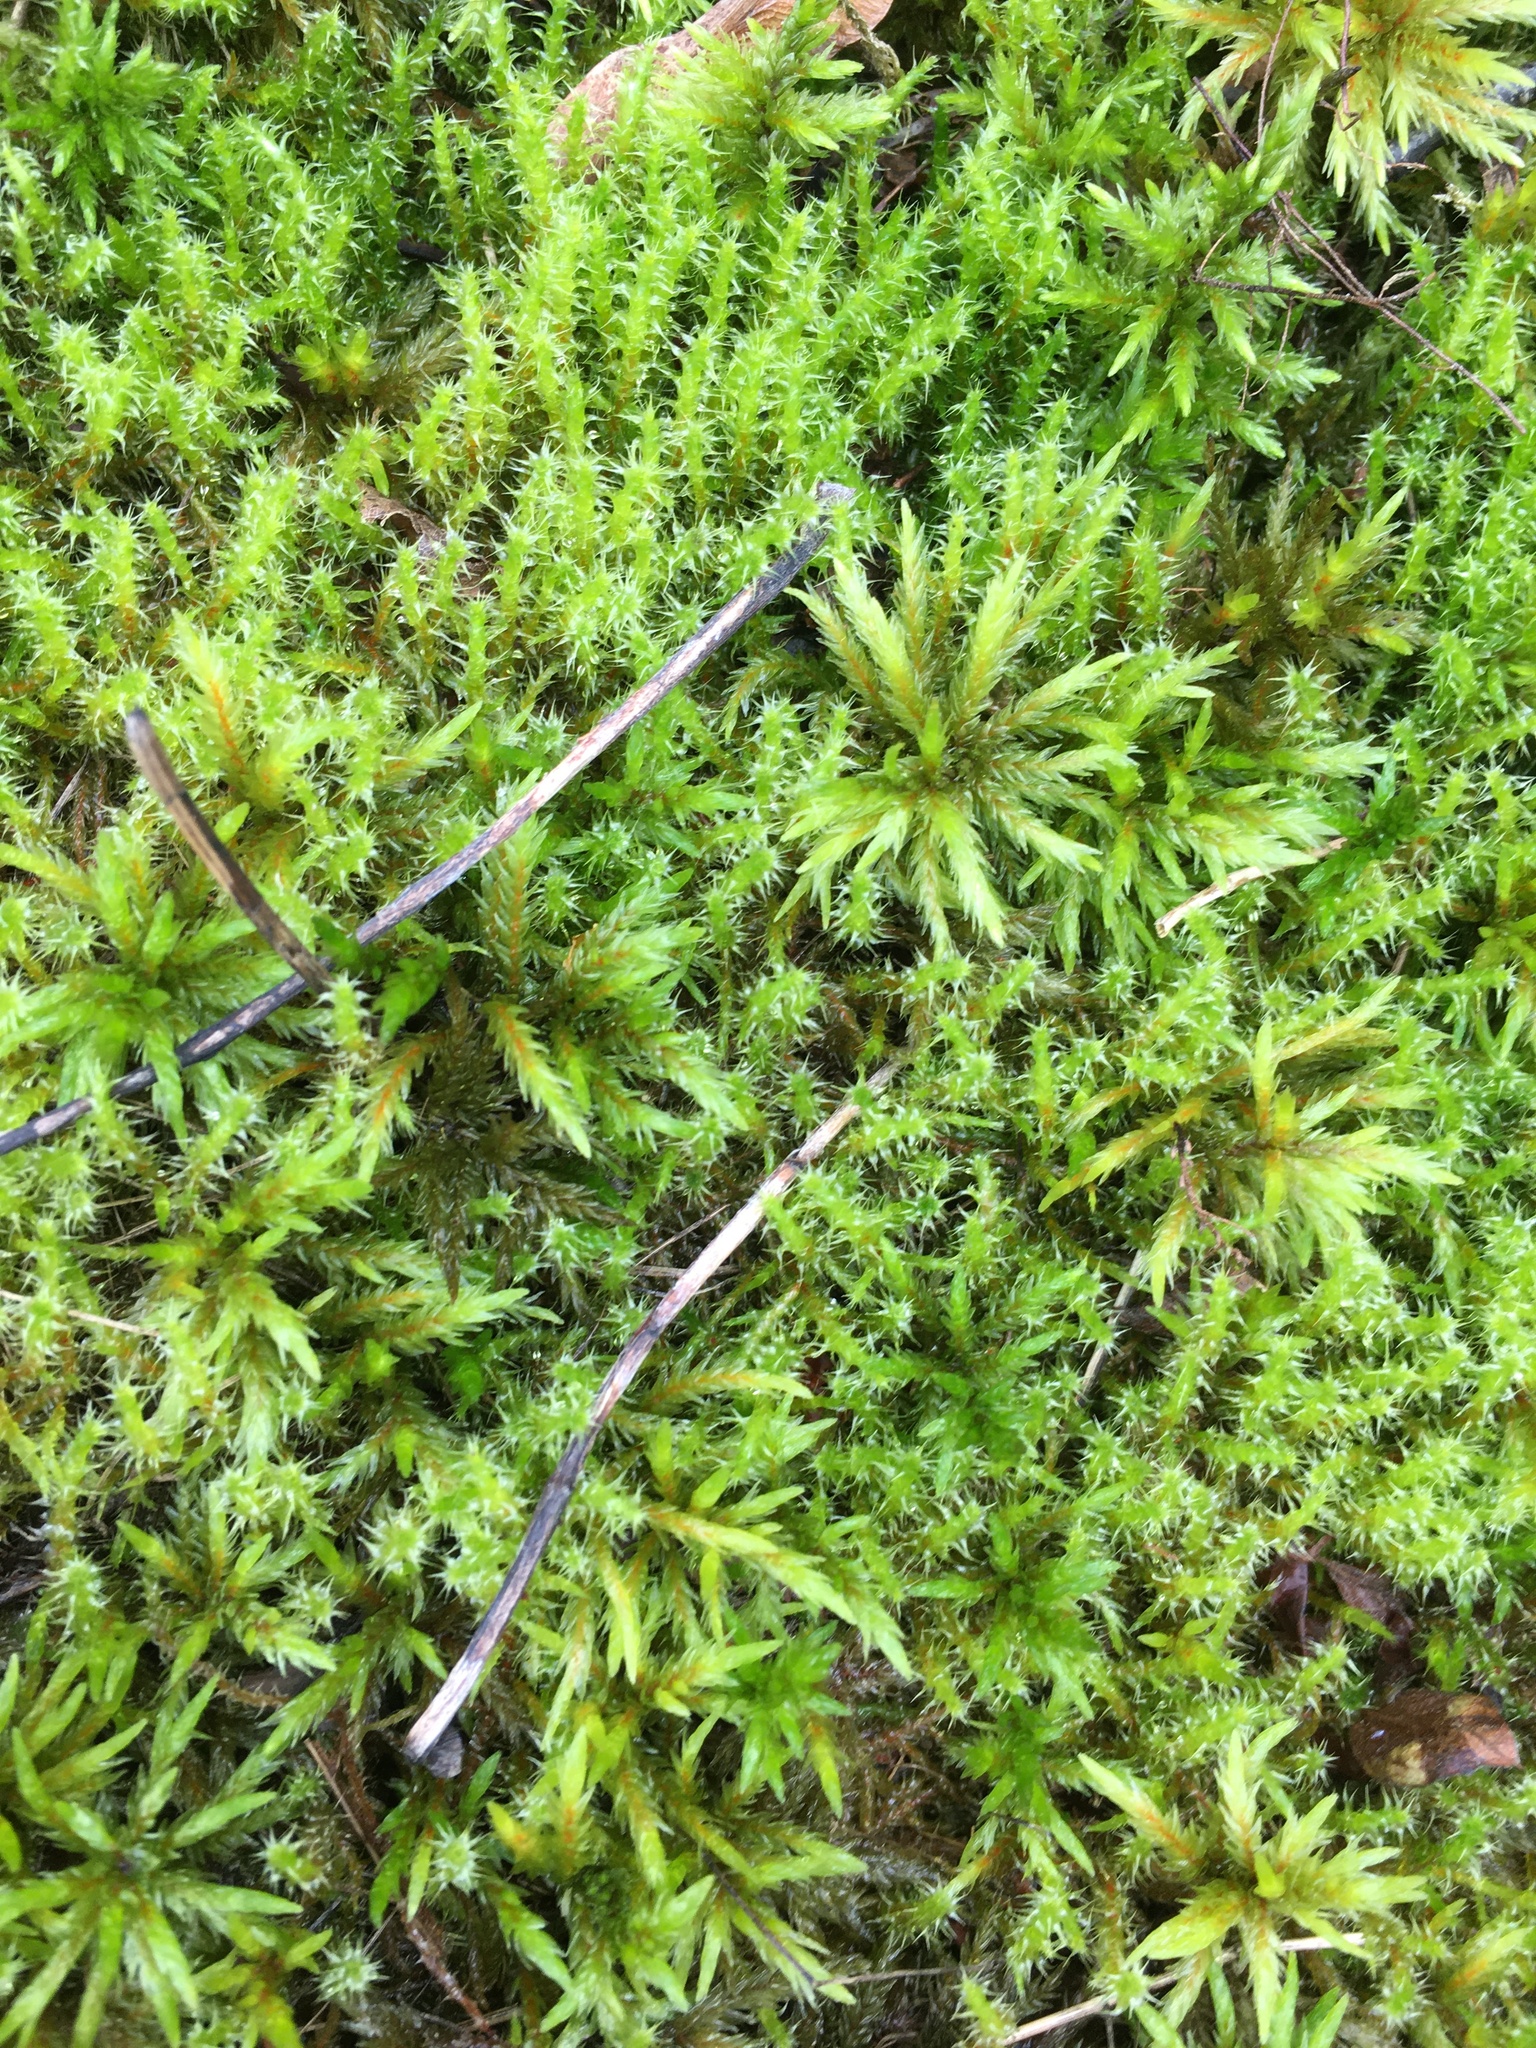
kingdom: Plantae
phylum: Bryophyta
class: Bryopsida
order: Hypnales
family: Climaciaceae
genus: Climacium
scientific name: Climacium dendroides
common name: Northern tree moss
